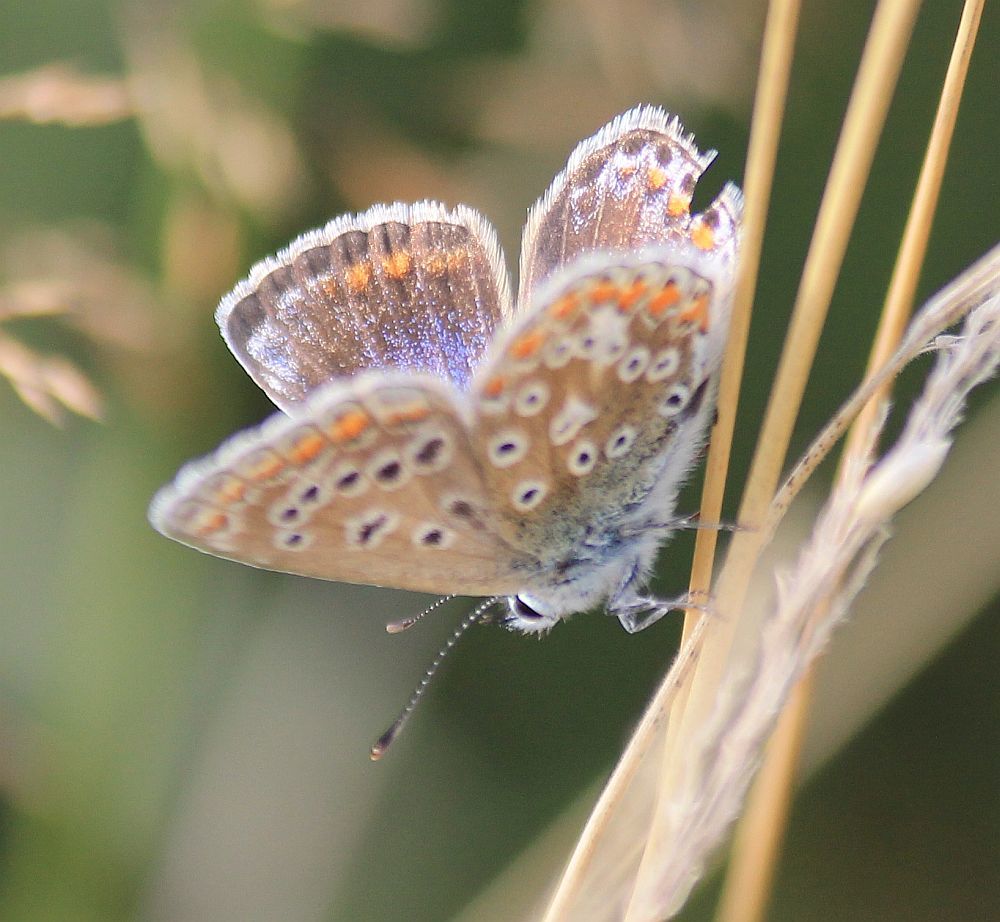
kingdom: Animalia
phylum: Arthropoda
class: Insecta
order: Lepidoptera
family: Lycaenidae
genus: Polyommatus
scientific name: Polyommatus icarus
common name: Common blue
